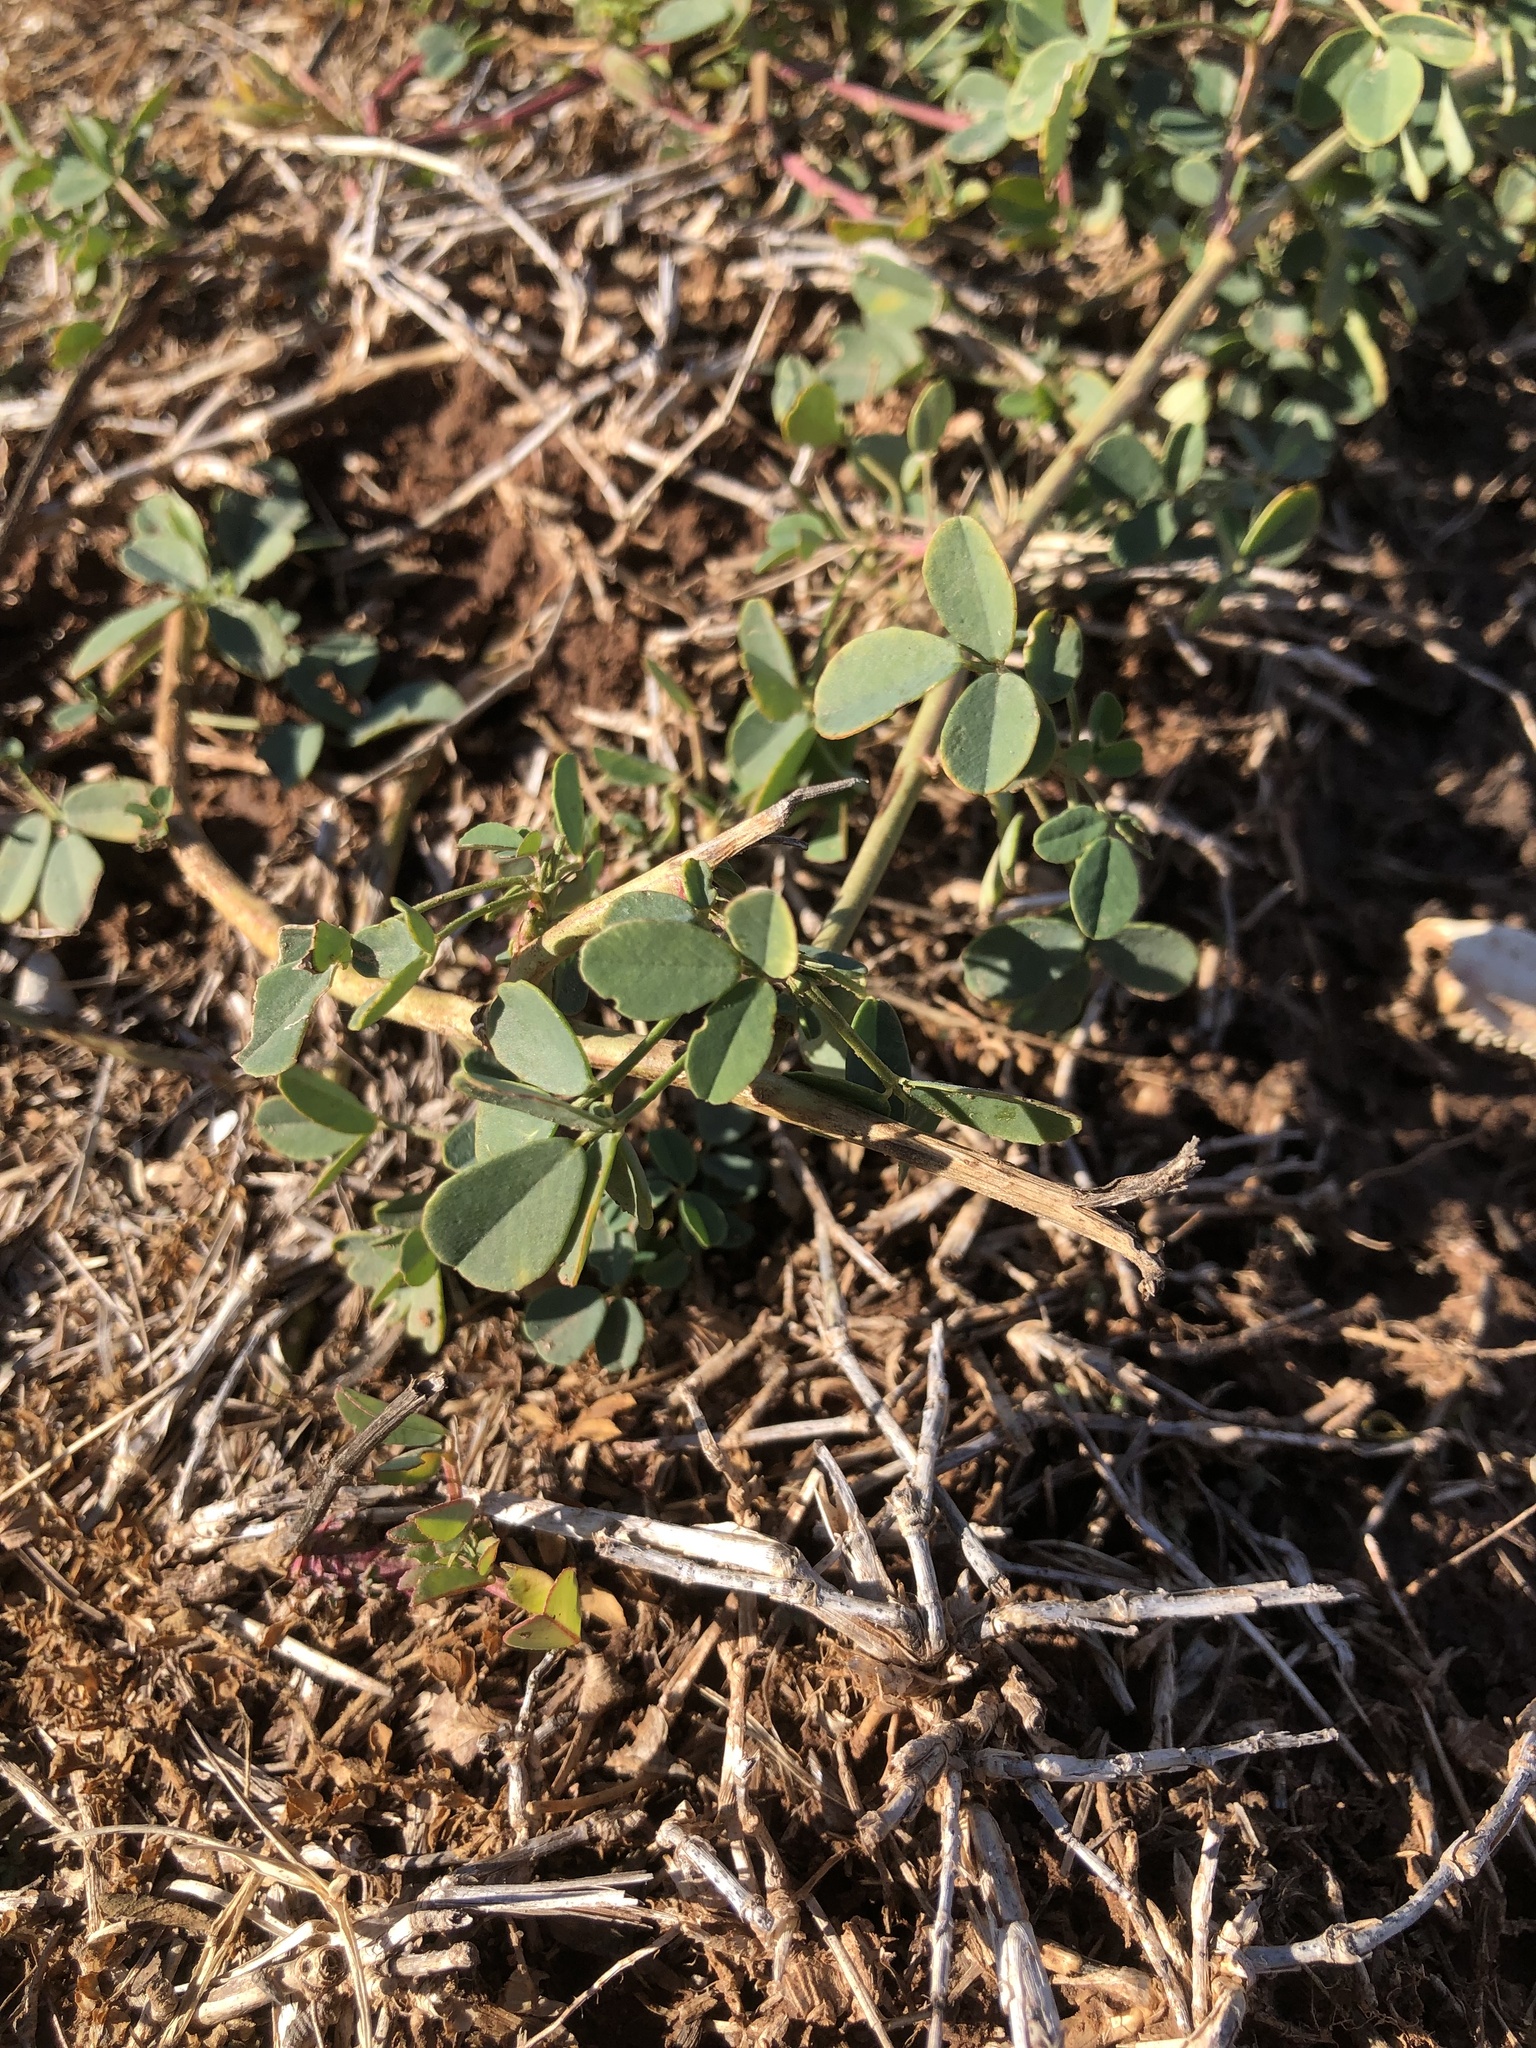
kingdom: Plantae
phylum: Tracheophyta
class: Magnoliopsida
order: Fabales
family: Fabaceae
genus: Melilotus
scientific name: Melilotus albus
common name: White melilot
